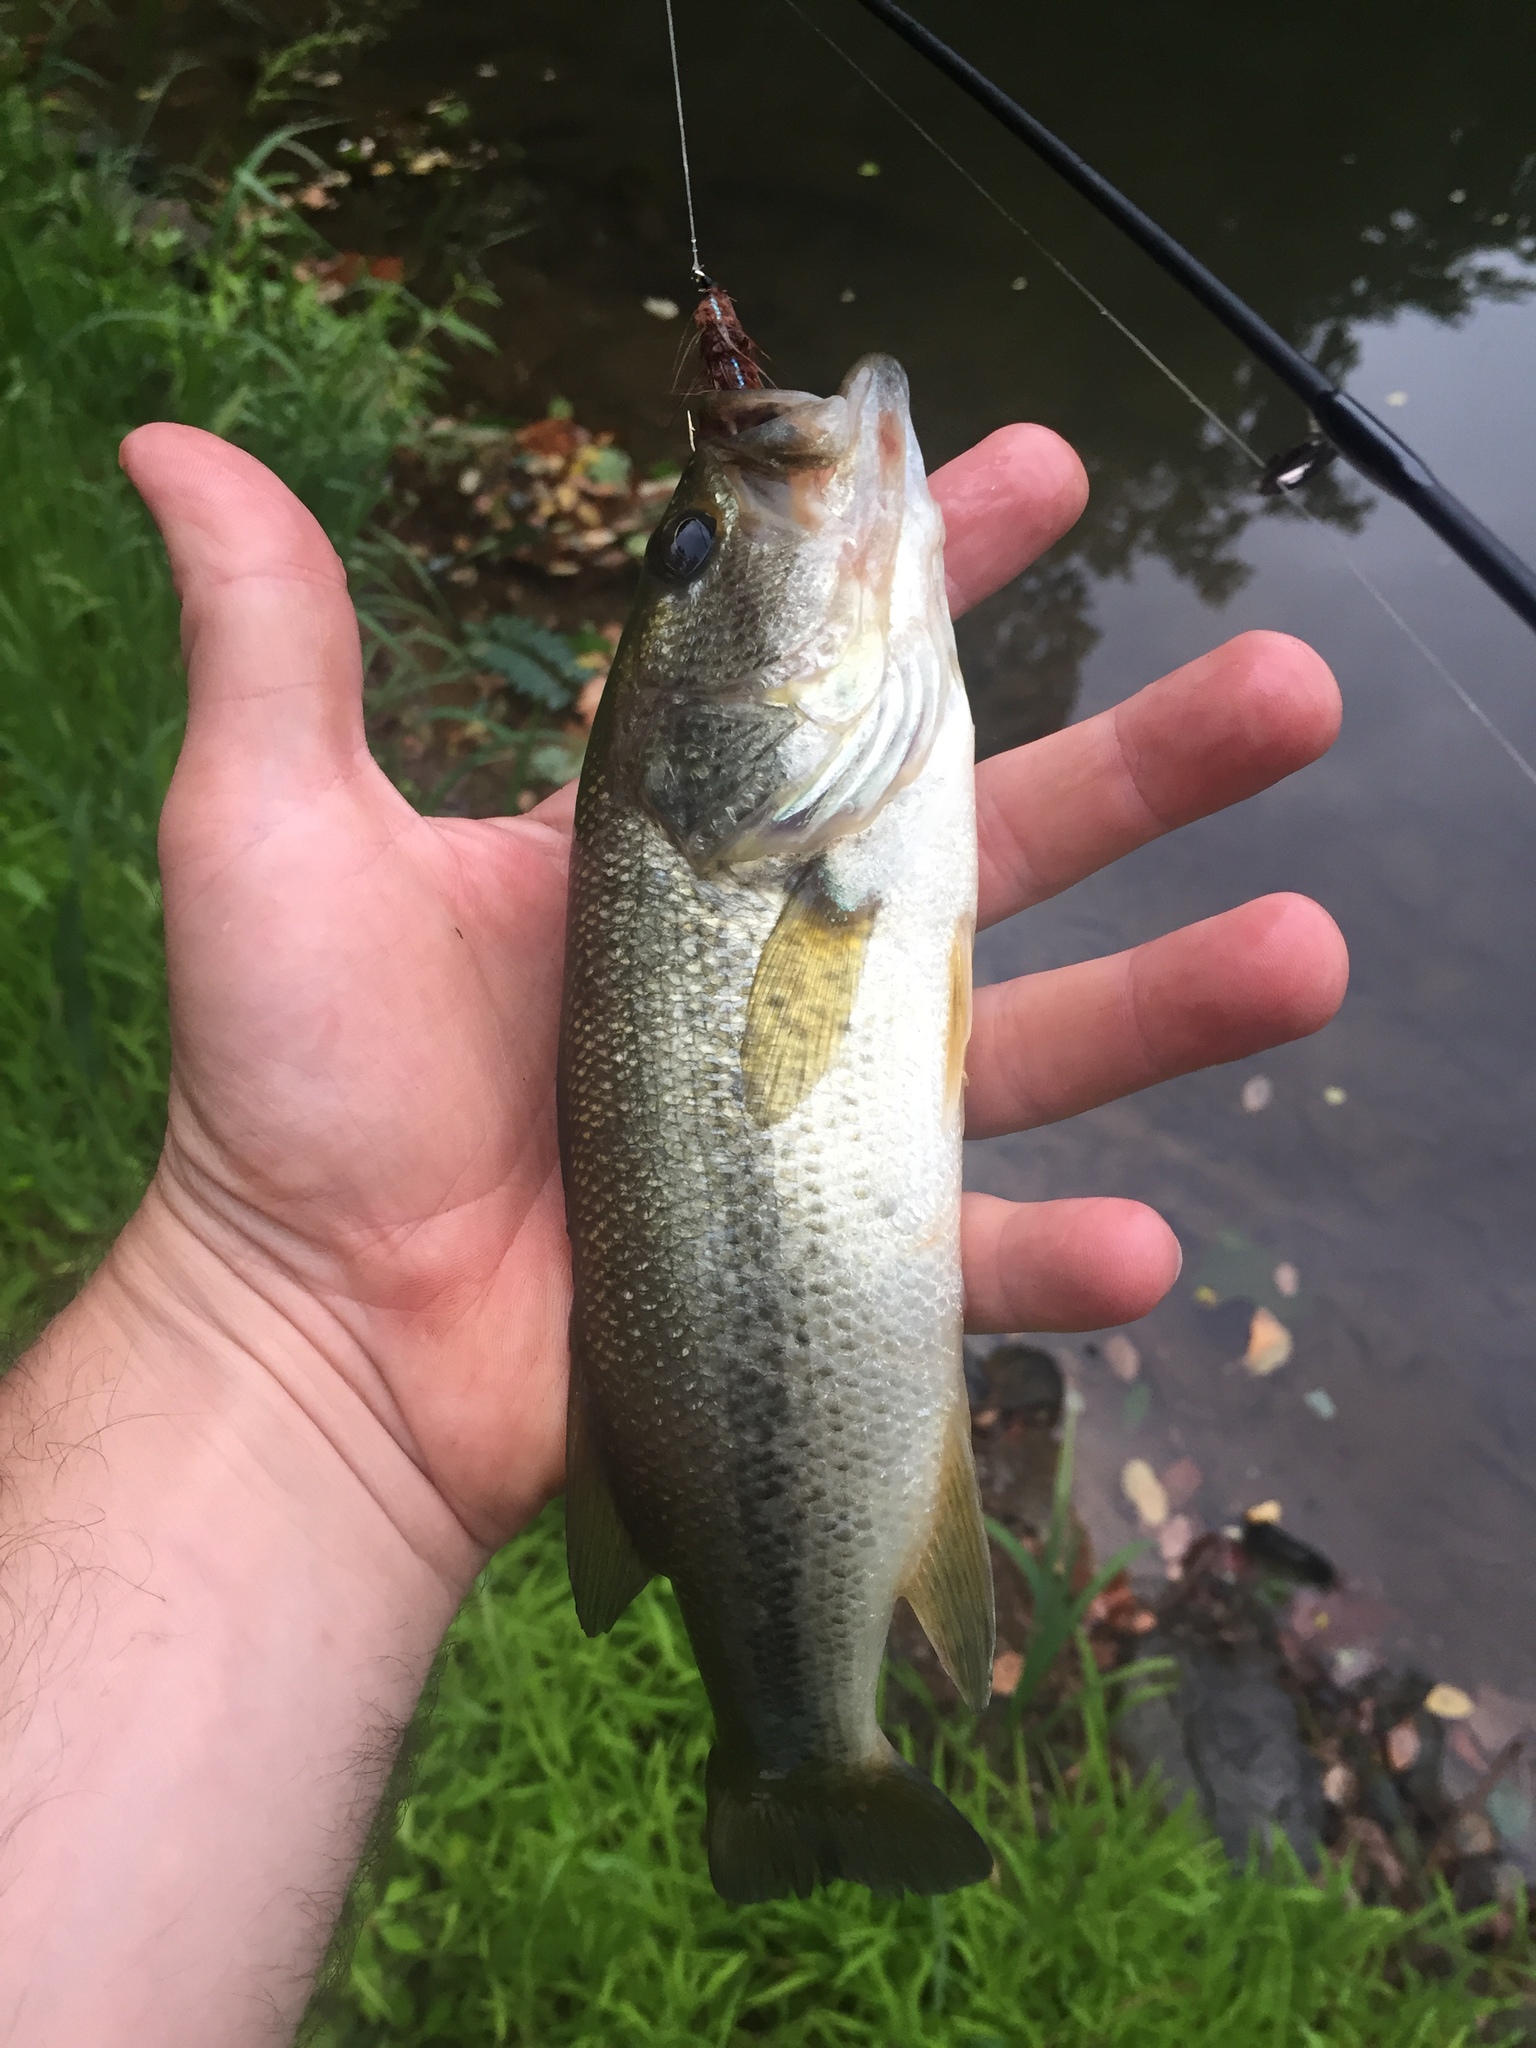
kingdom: Animalia
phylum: Chordata
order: Perciformes
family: Centrarchidae
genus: Micropterus
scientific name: Micropterus
